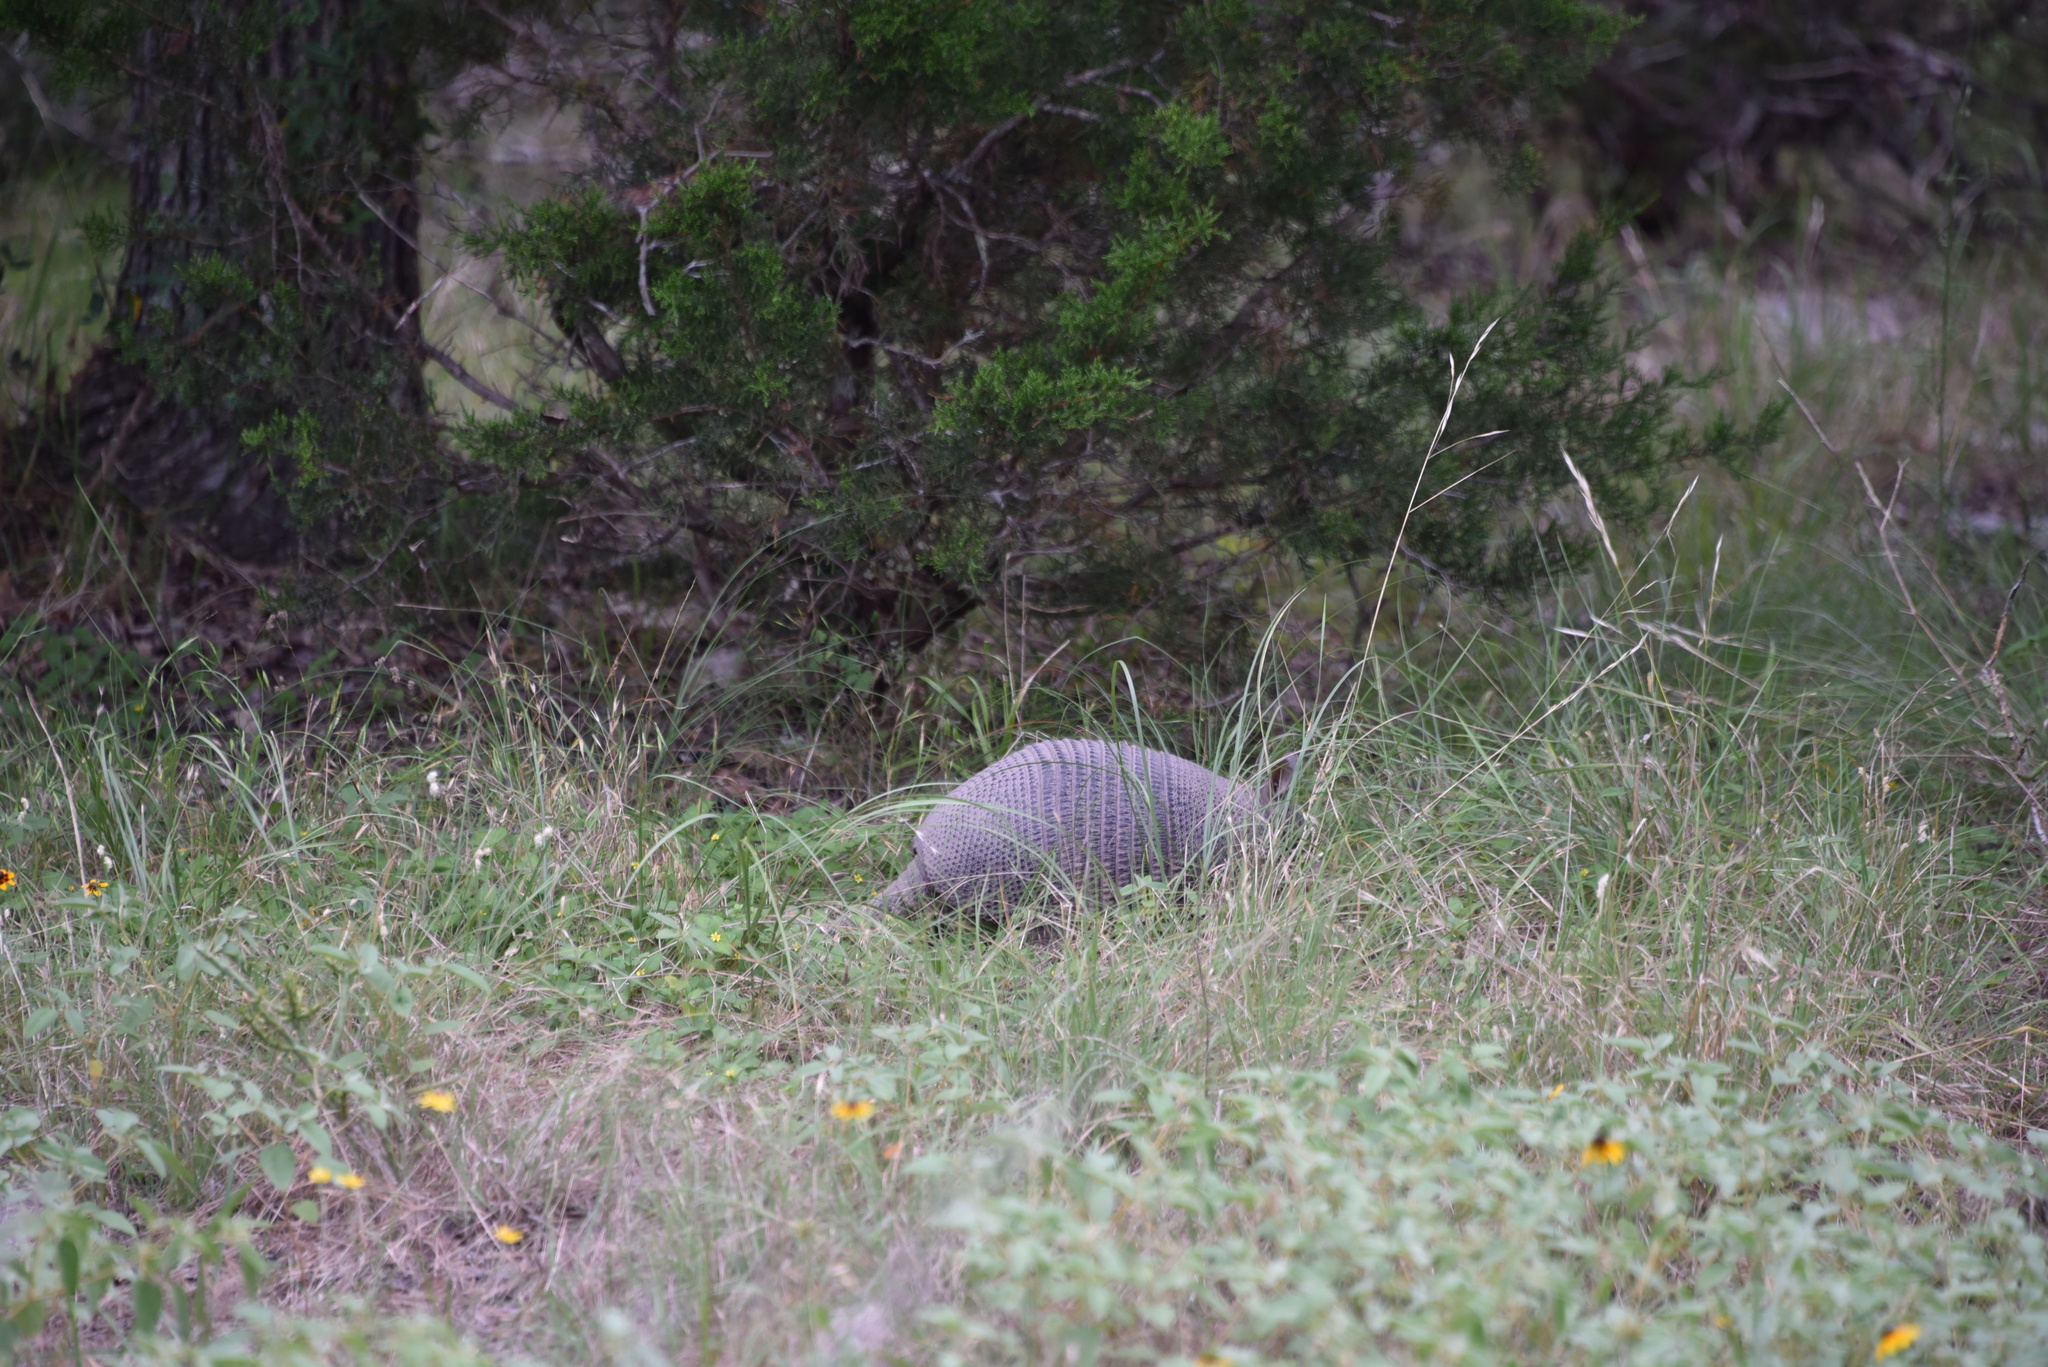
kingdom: Animalia
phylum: Chordata
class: Mammalia
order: Cingulata
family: Dasypodidae
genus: Dasypus
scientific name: Dasypus novemcinctus
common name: Nine-banded armadillo
